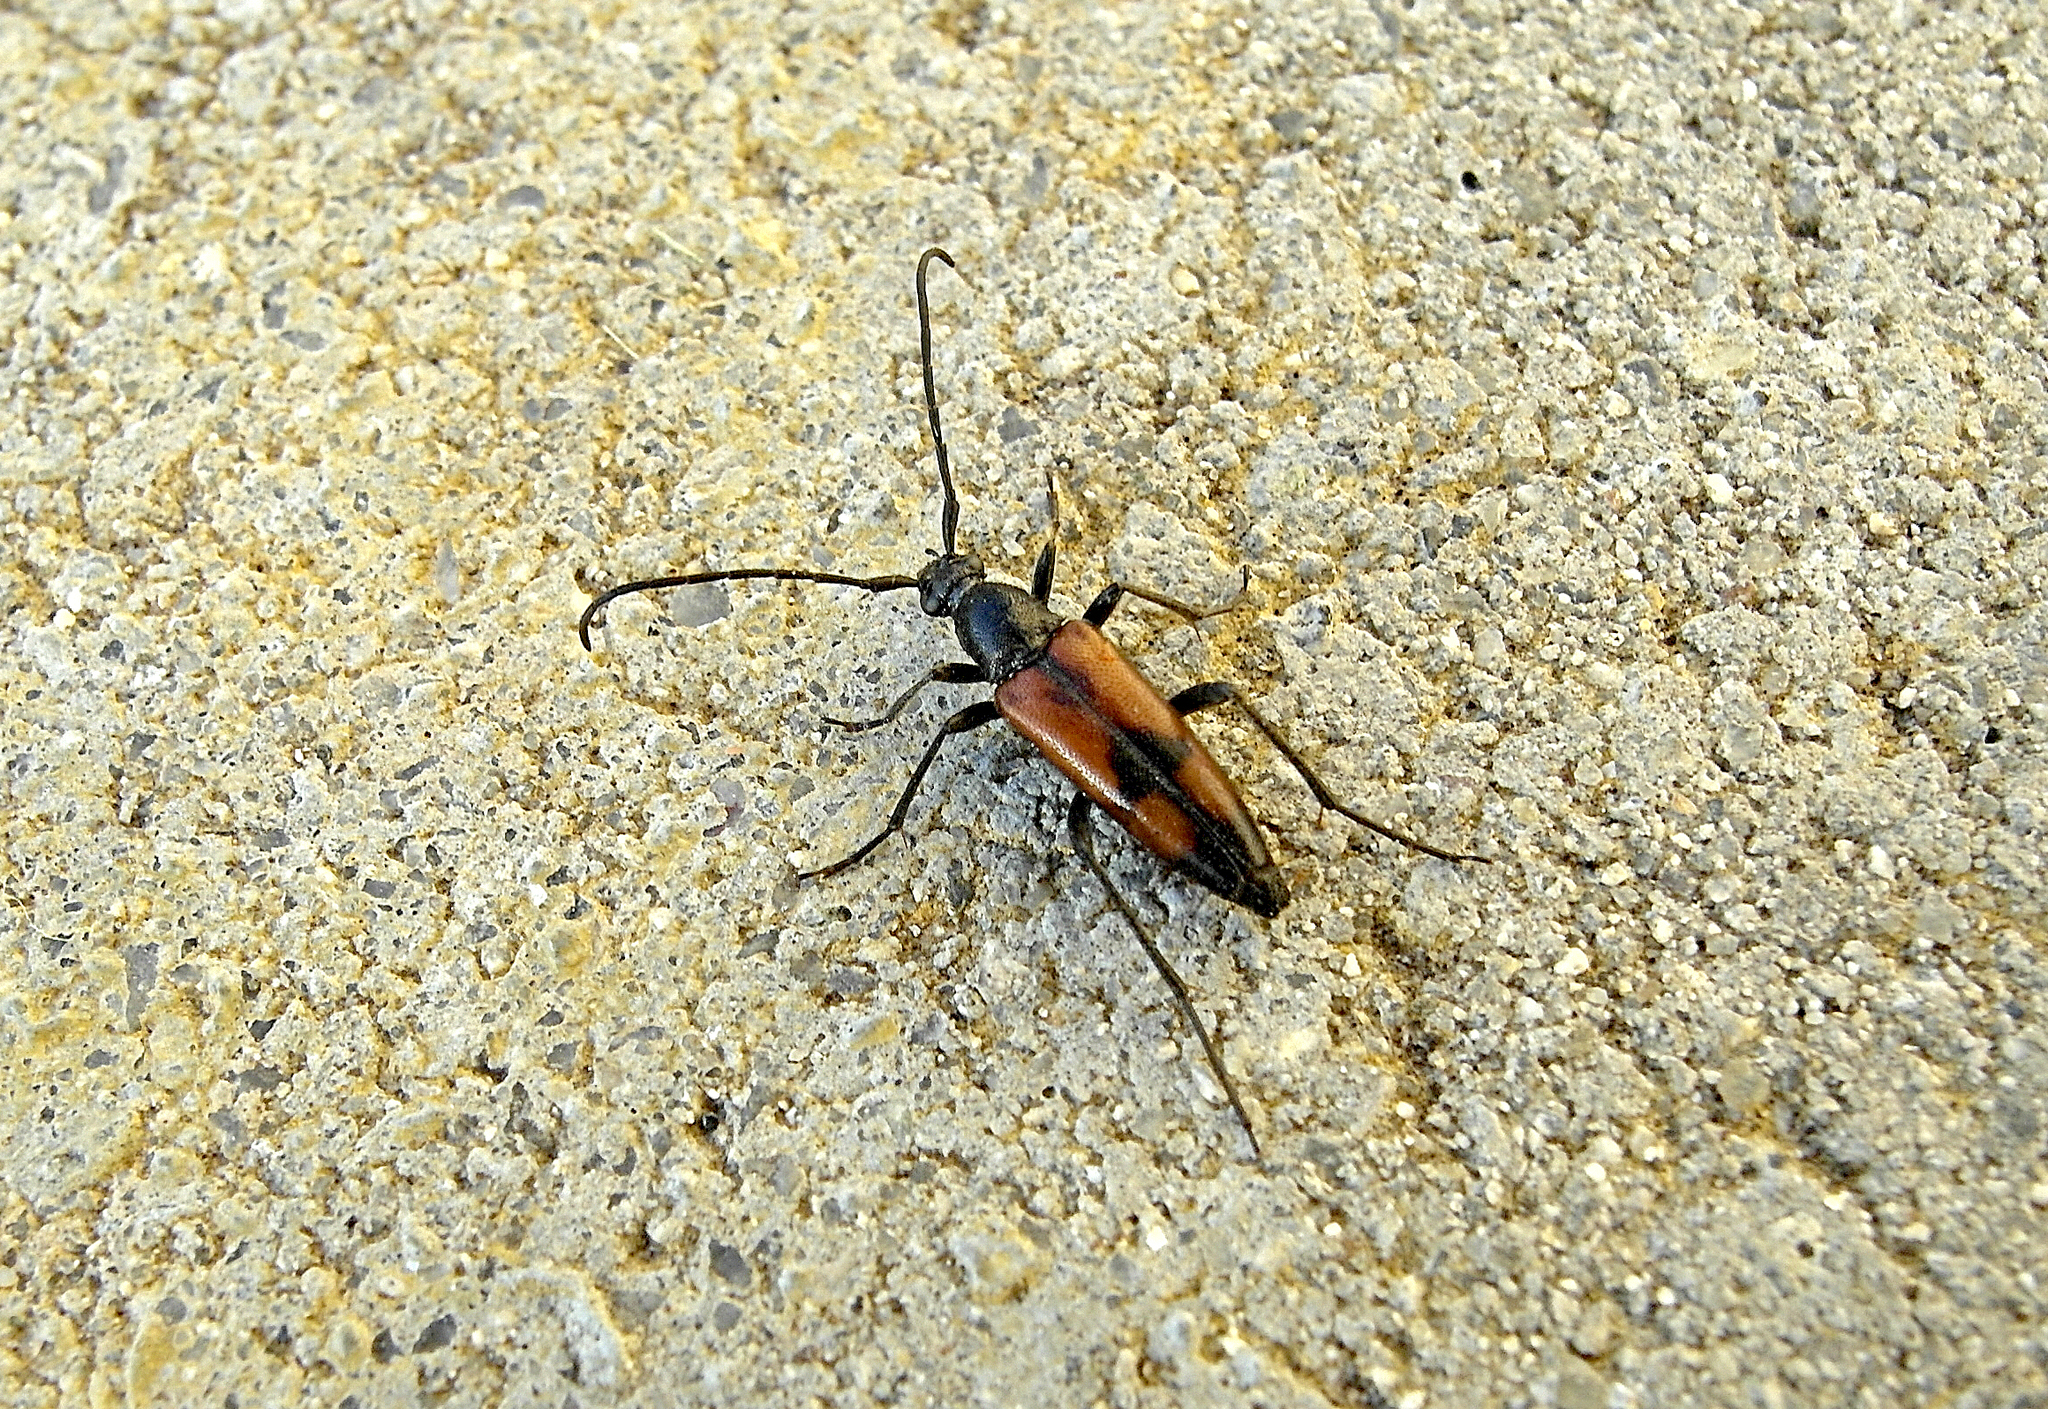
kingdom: Animalia
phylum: Arthropoda
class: Insecta
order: Coleoptera
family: Cerambycidae
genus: Stenurella
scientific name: Stenurella bifasciata
